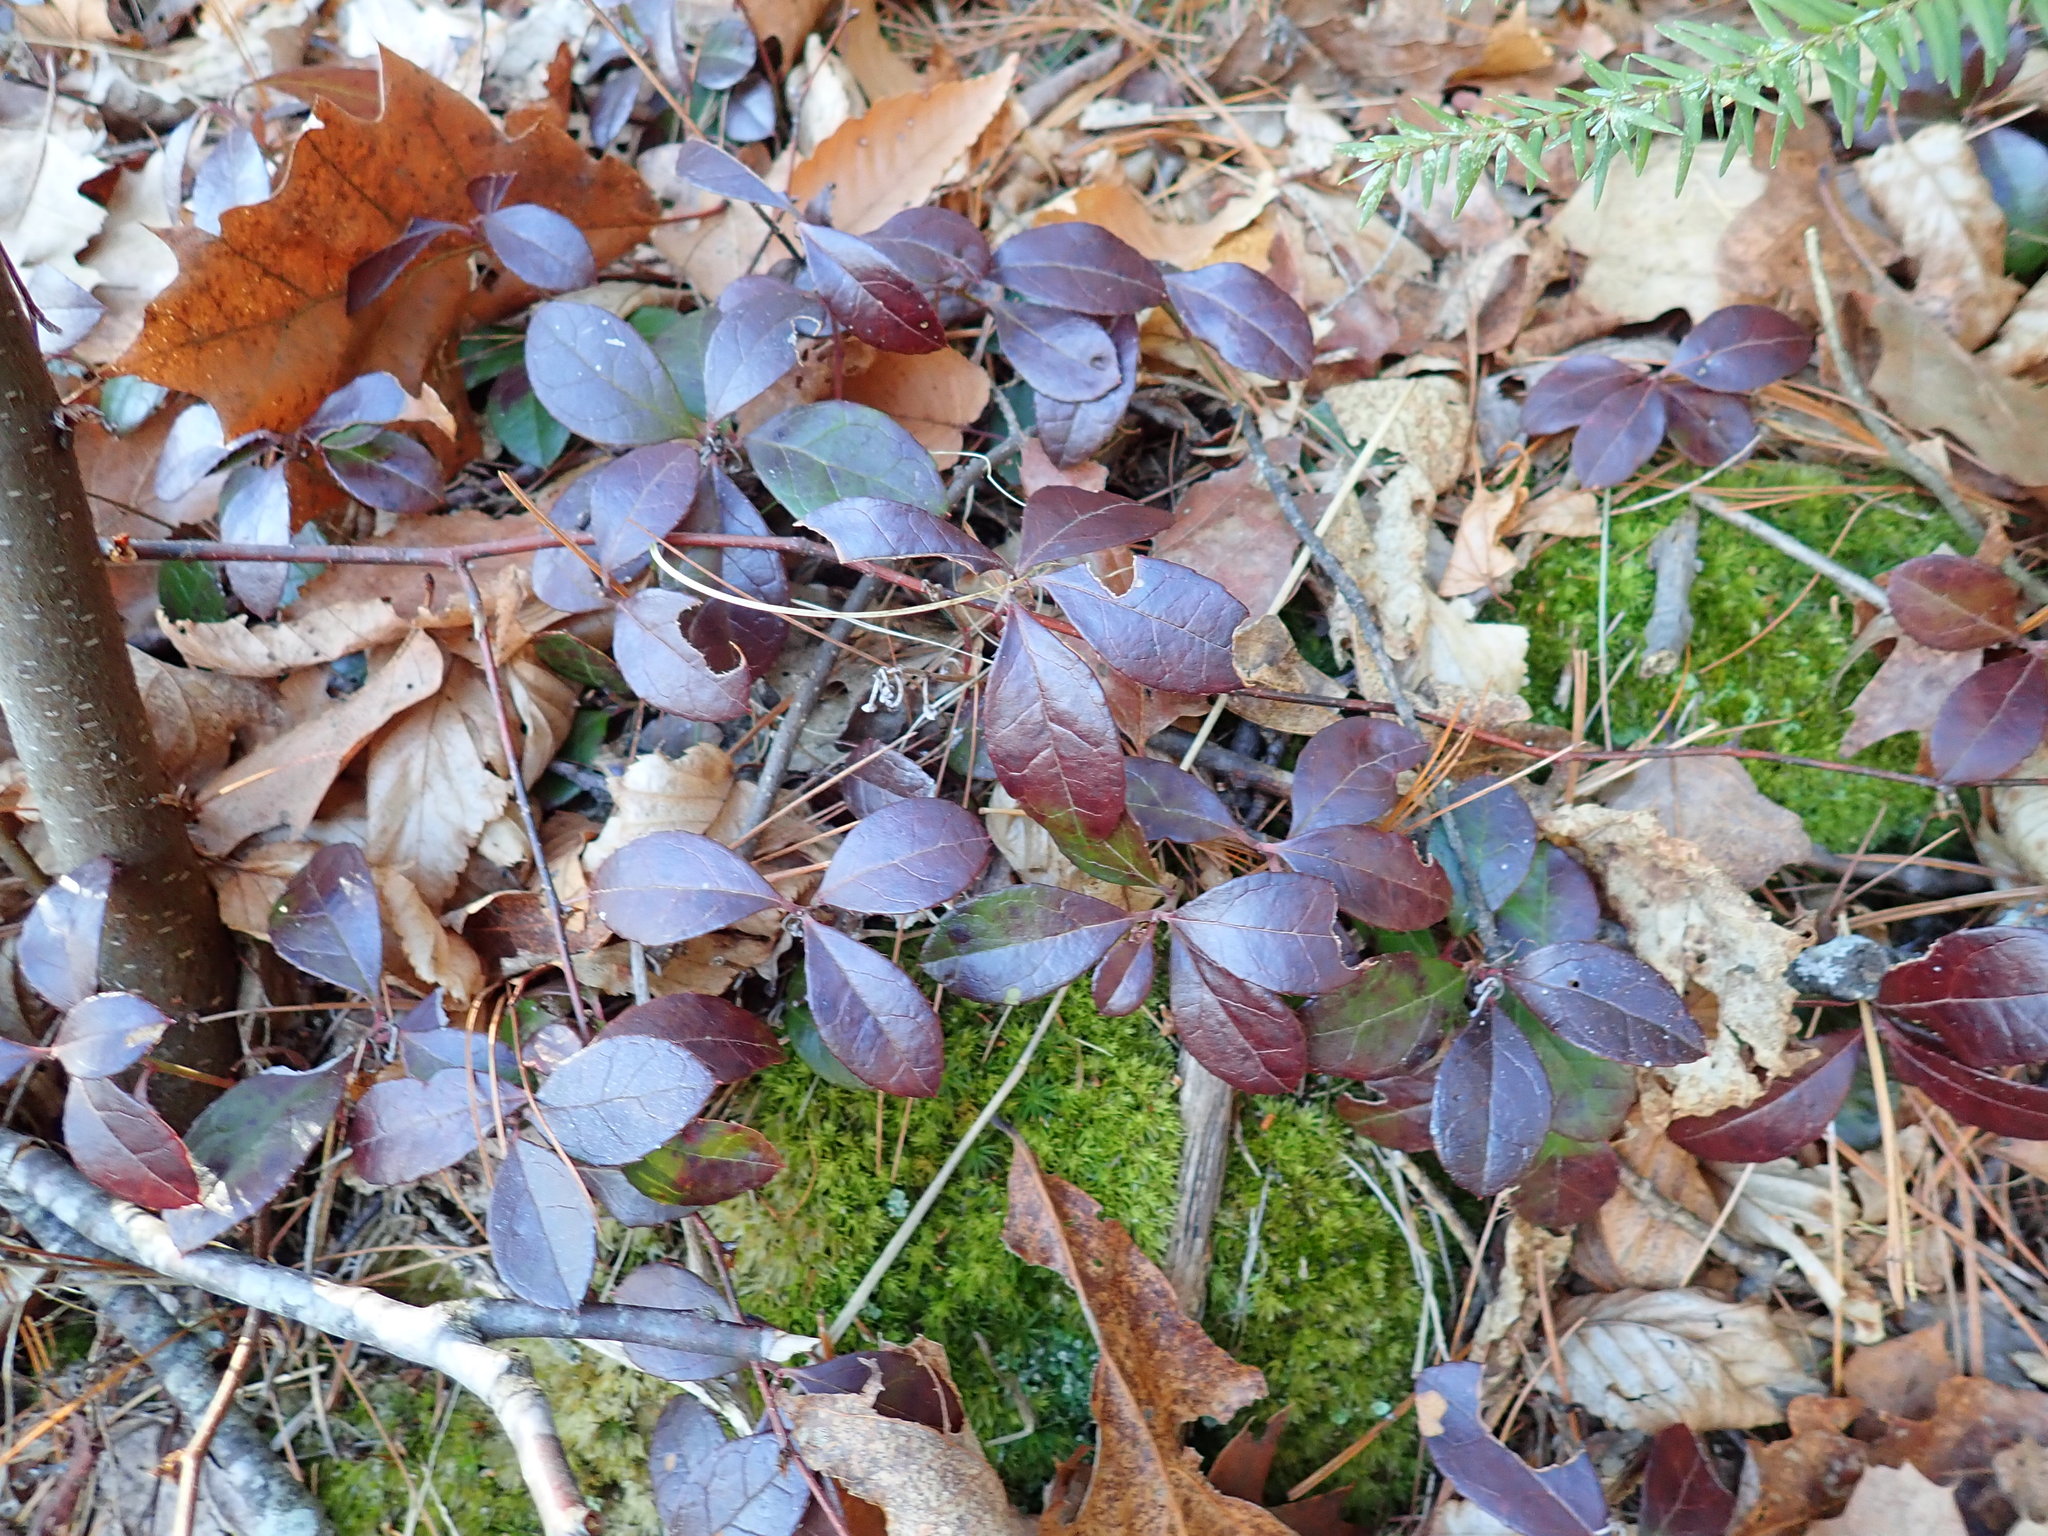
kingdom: Plantae
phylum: Tracheophyta
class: Magnoliopsida
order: Ericales
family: Ericaceae
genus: Gaultheria
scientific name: Gaultheria procumbens
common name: Checkerberry
